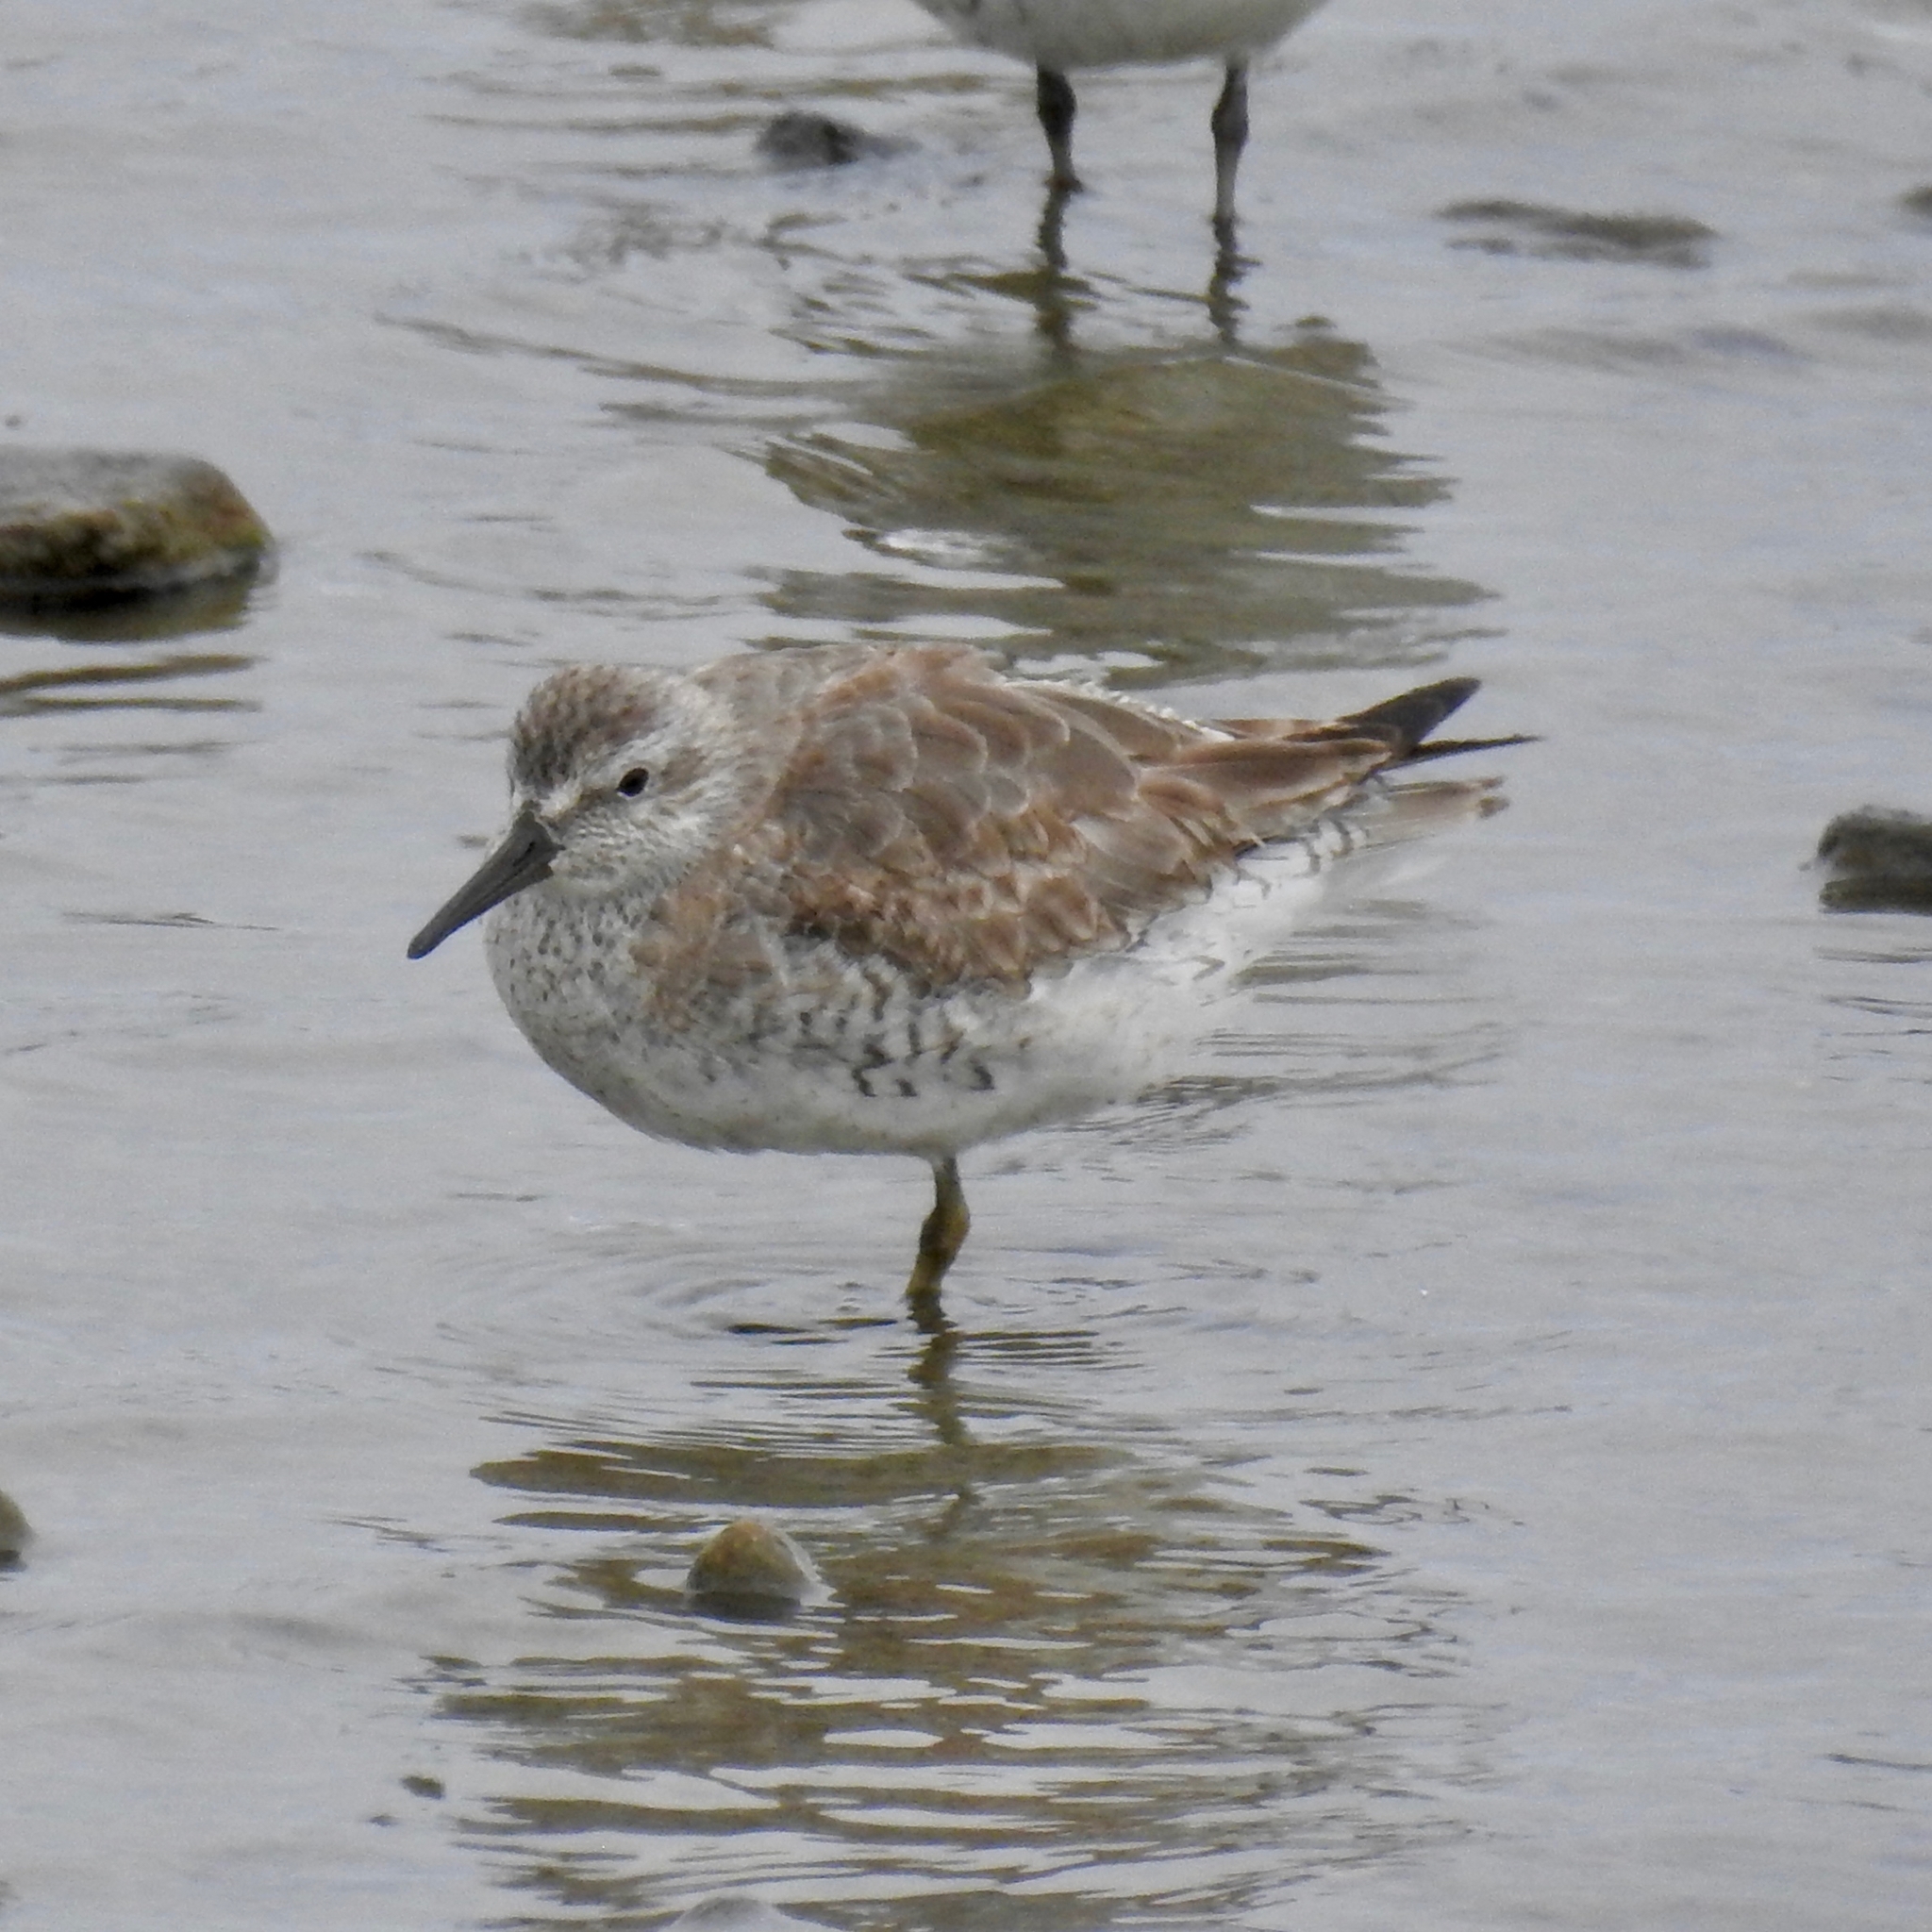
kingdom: Animalia
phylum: Chordata
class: Aves
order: Charadriiformes
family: Scolopacidae
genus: Calidris
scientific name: Calidris canutus
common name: Red knot
